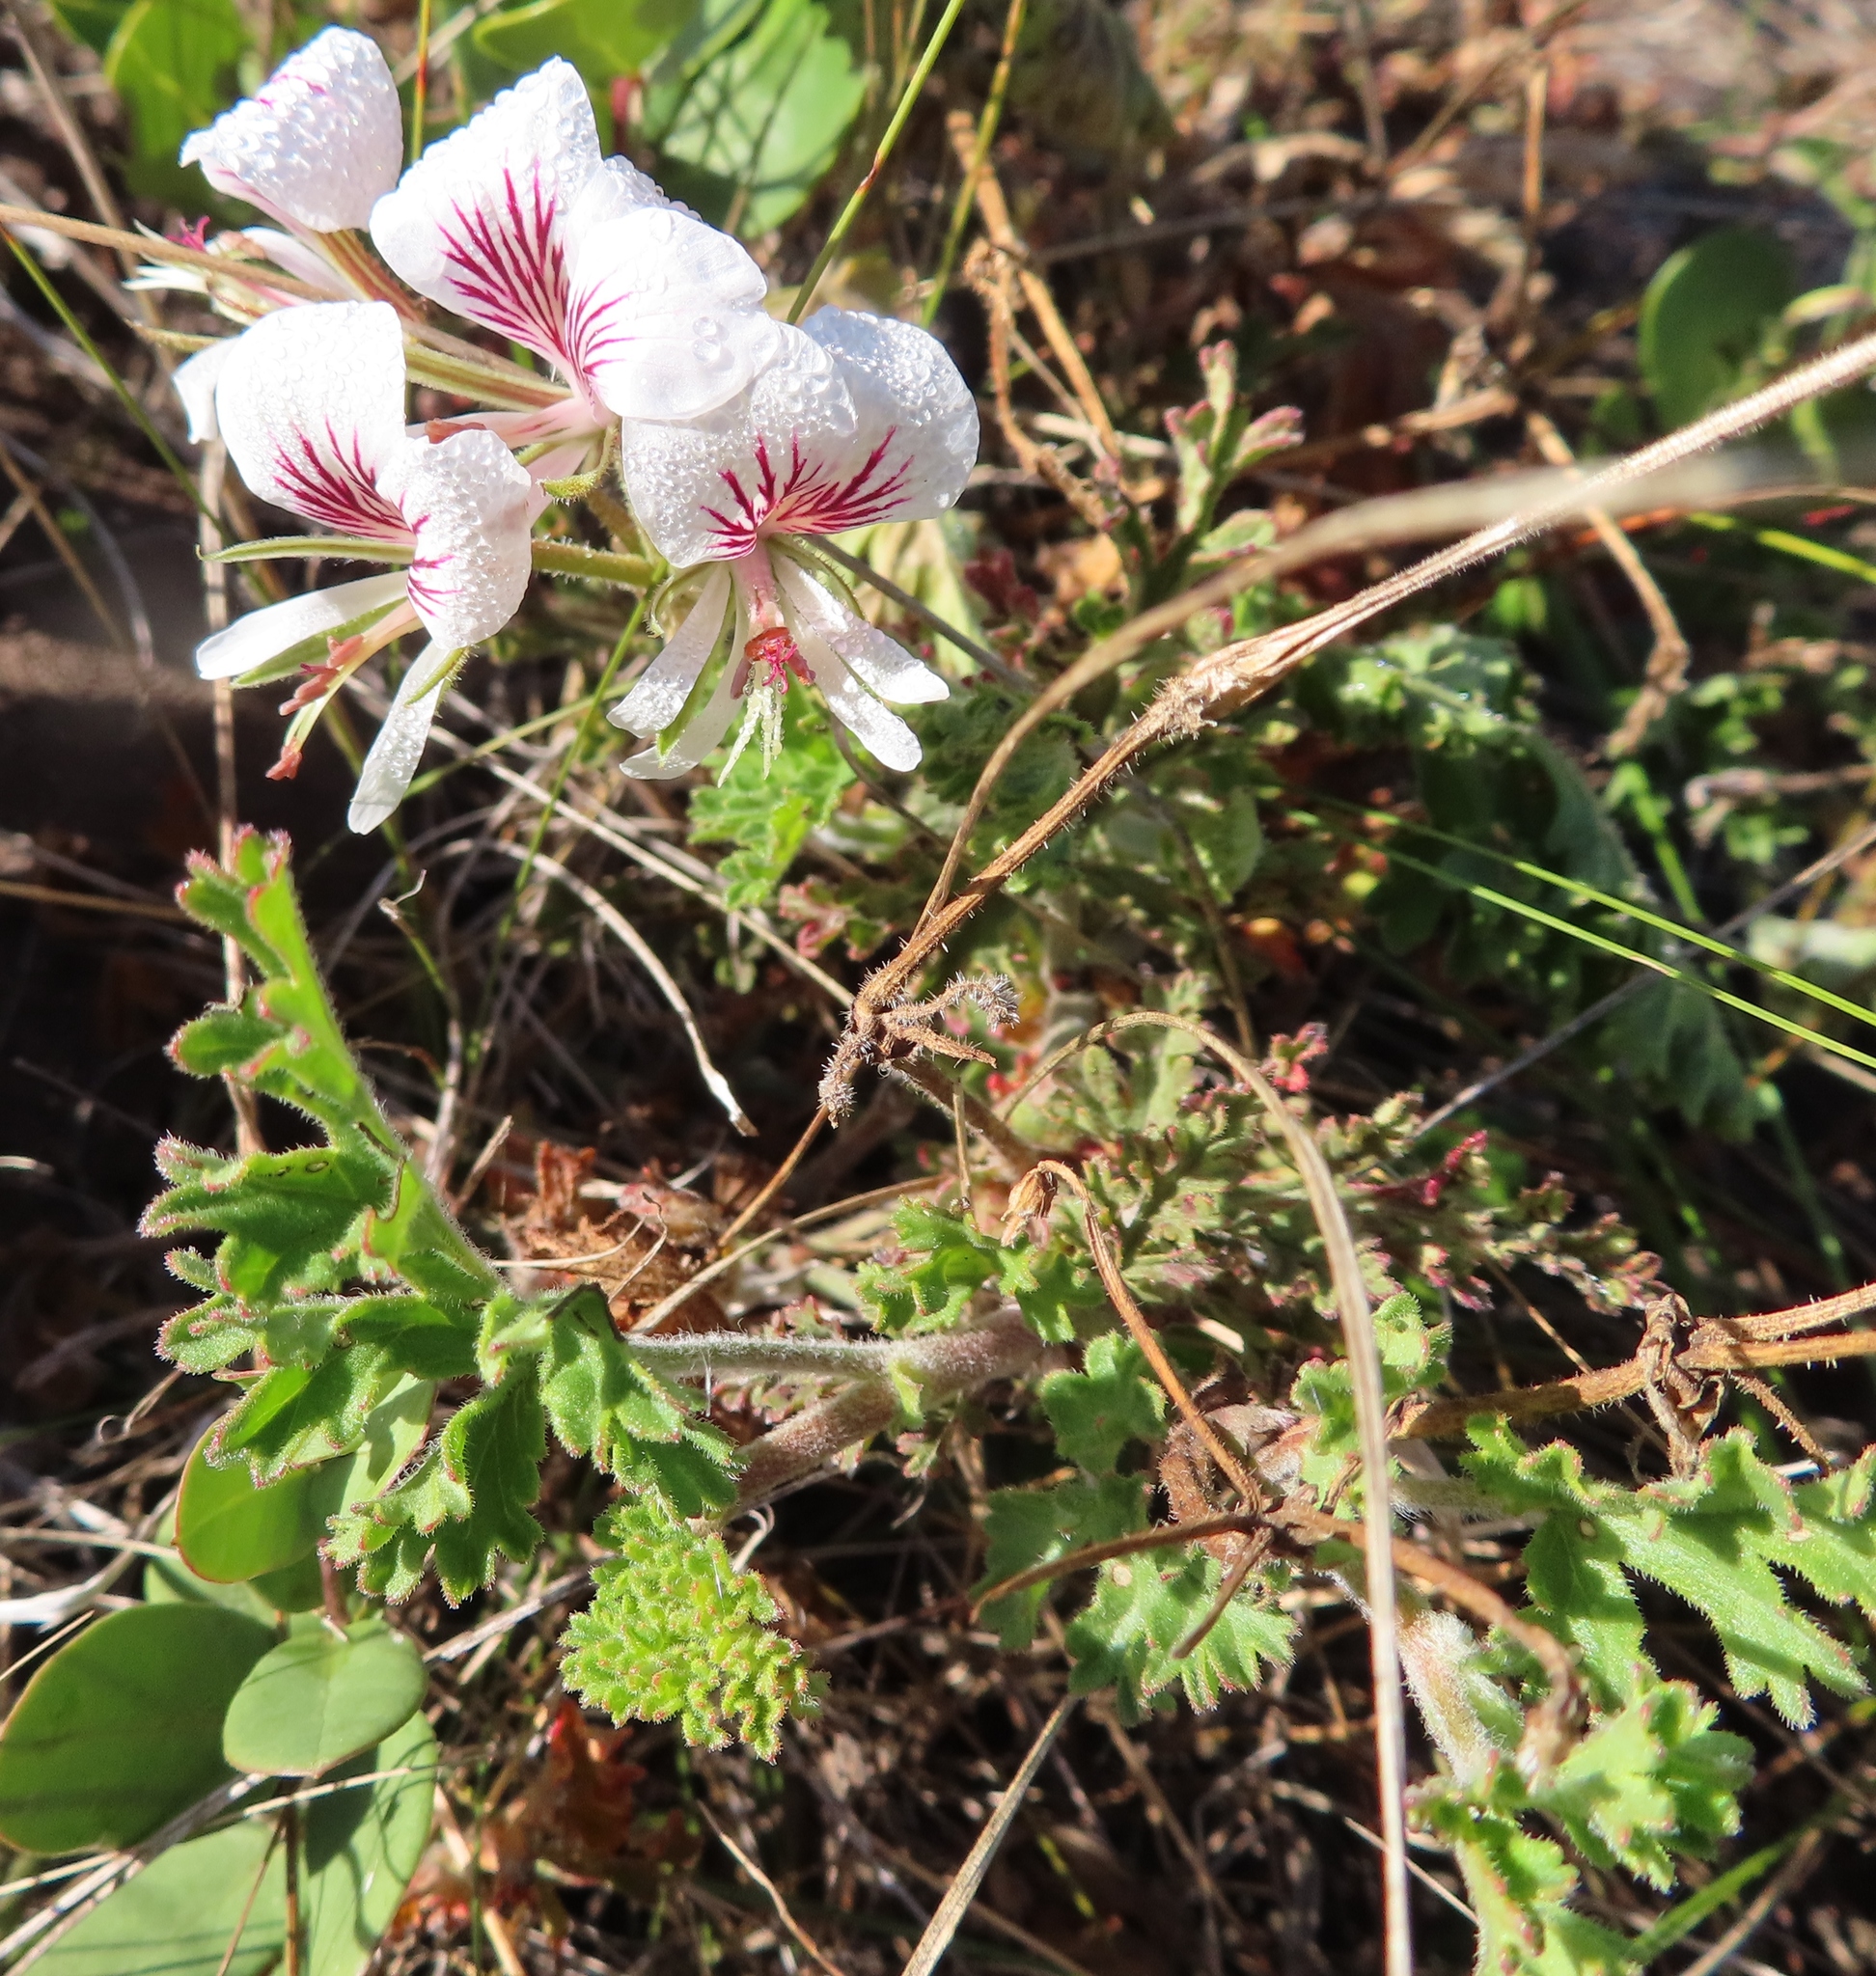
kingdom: Plantae
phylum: Tracheophyta
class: Magnoliopsida
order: Geraniales
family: Geraniaceae
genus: Pelargonium
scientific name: Pelargonium suburbanum
